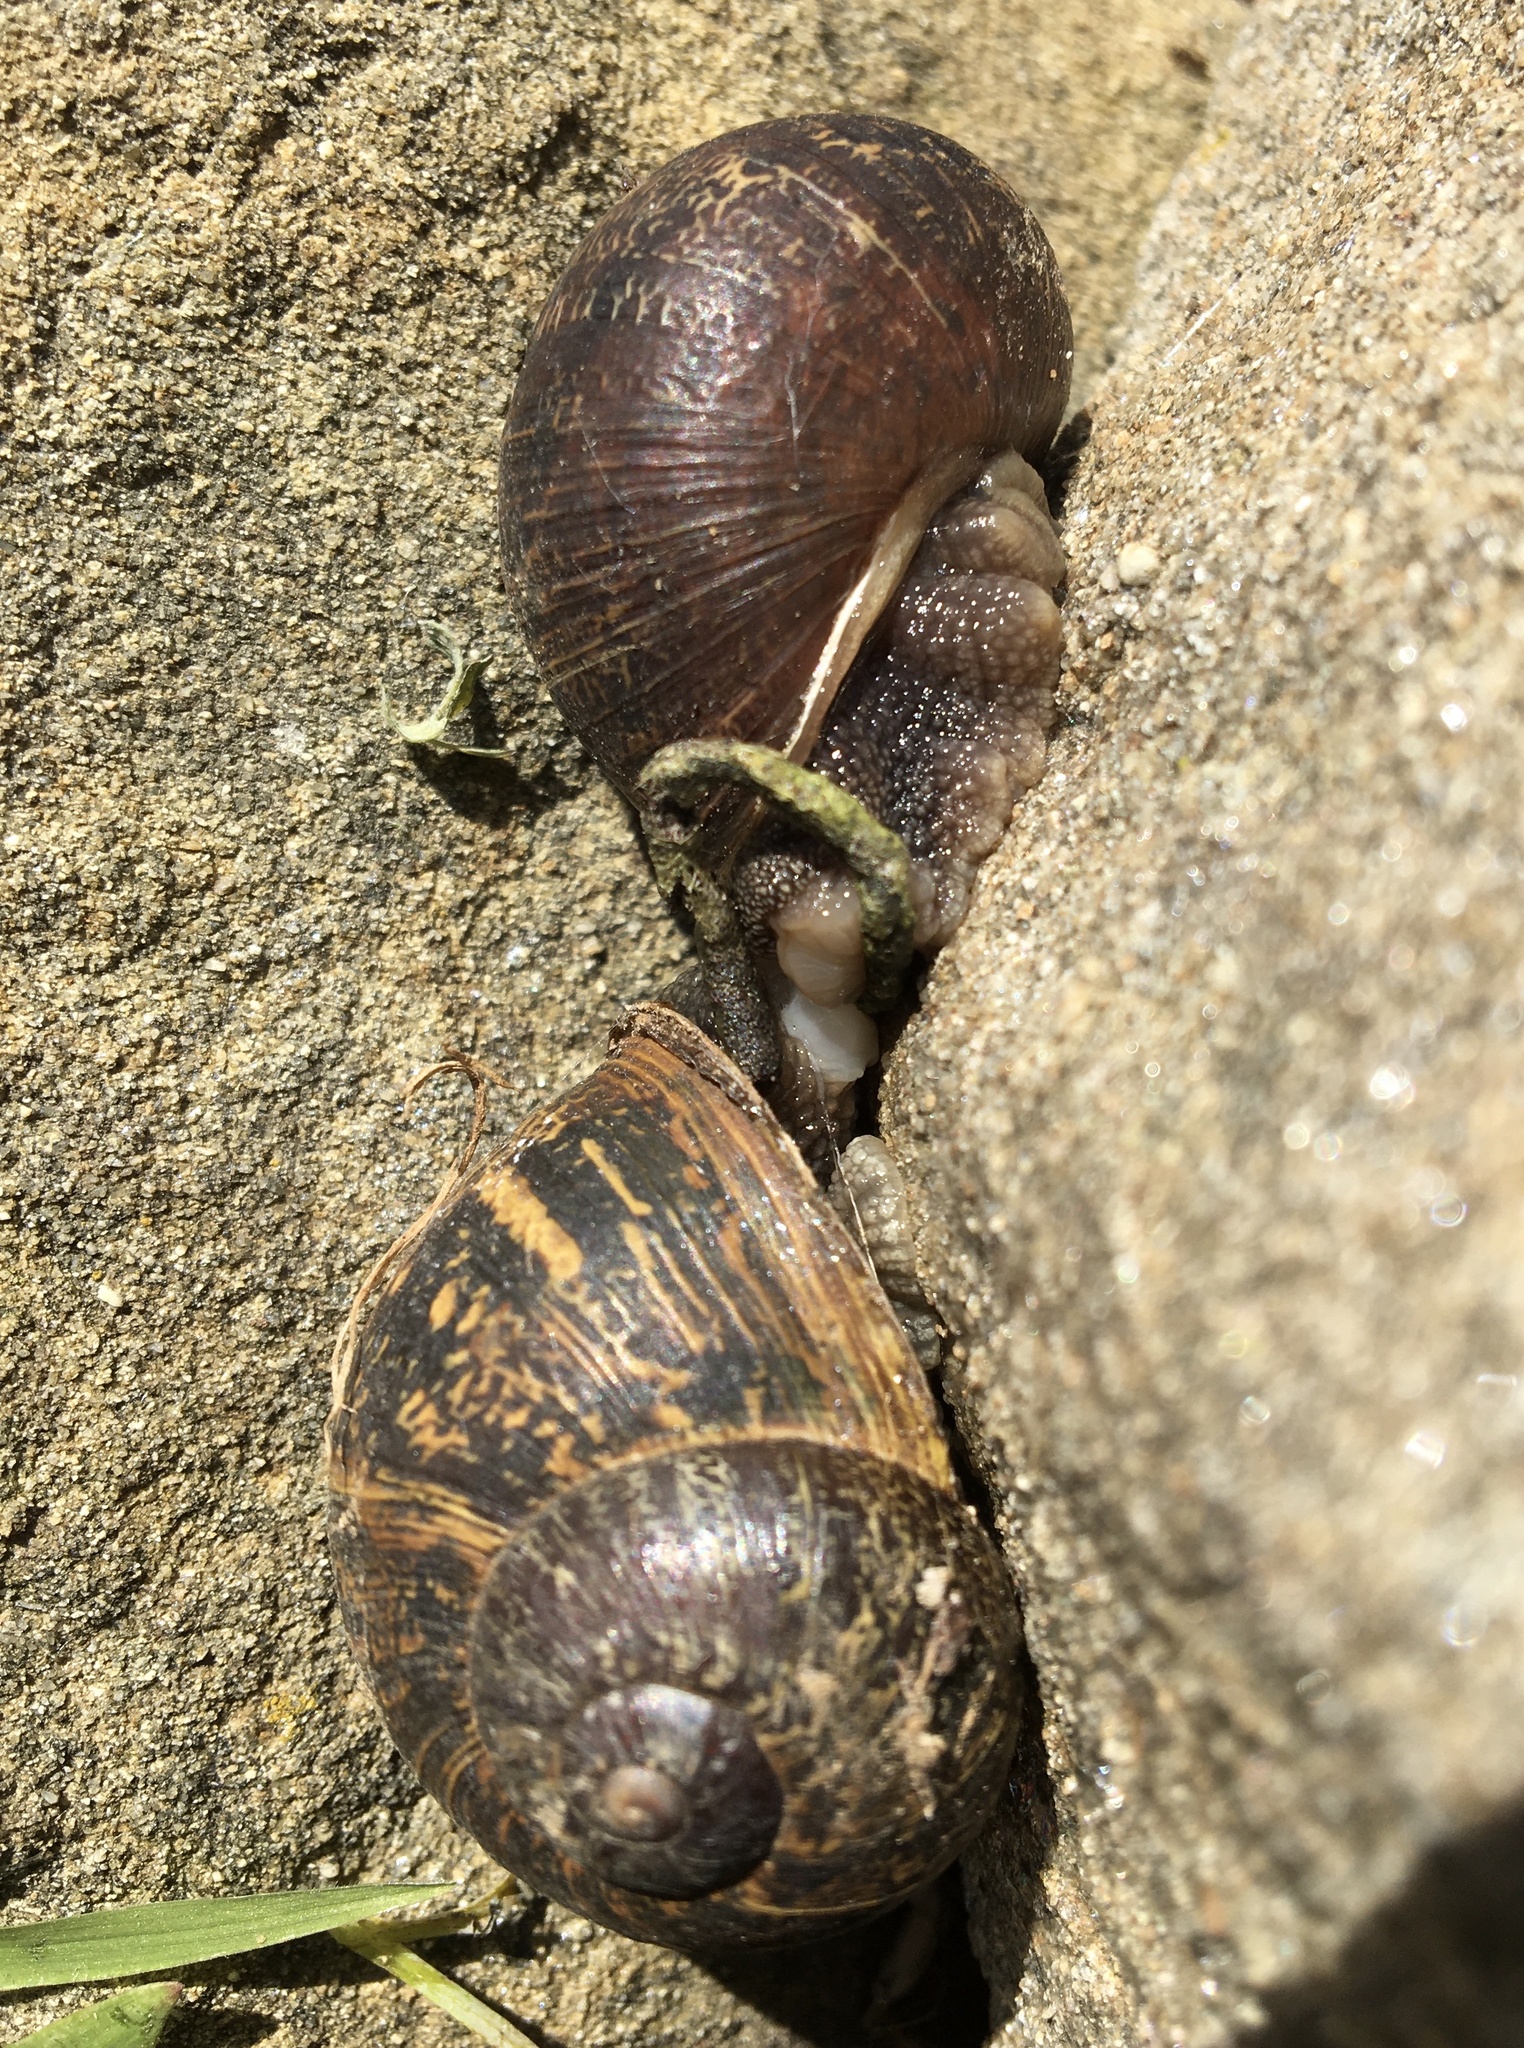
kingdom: Animalia
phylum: Mollusca
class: Gastropoda
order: Stylommatophora
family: Helicidae
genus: Cornu
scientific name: Cornu aspersum
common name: Brown garden snail
